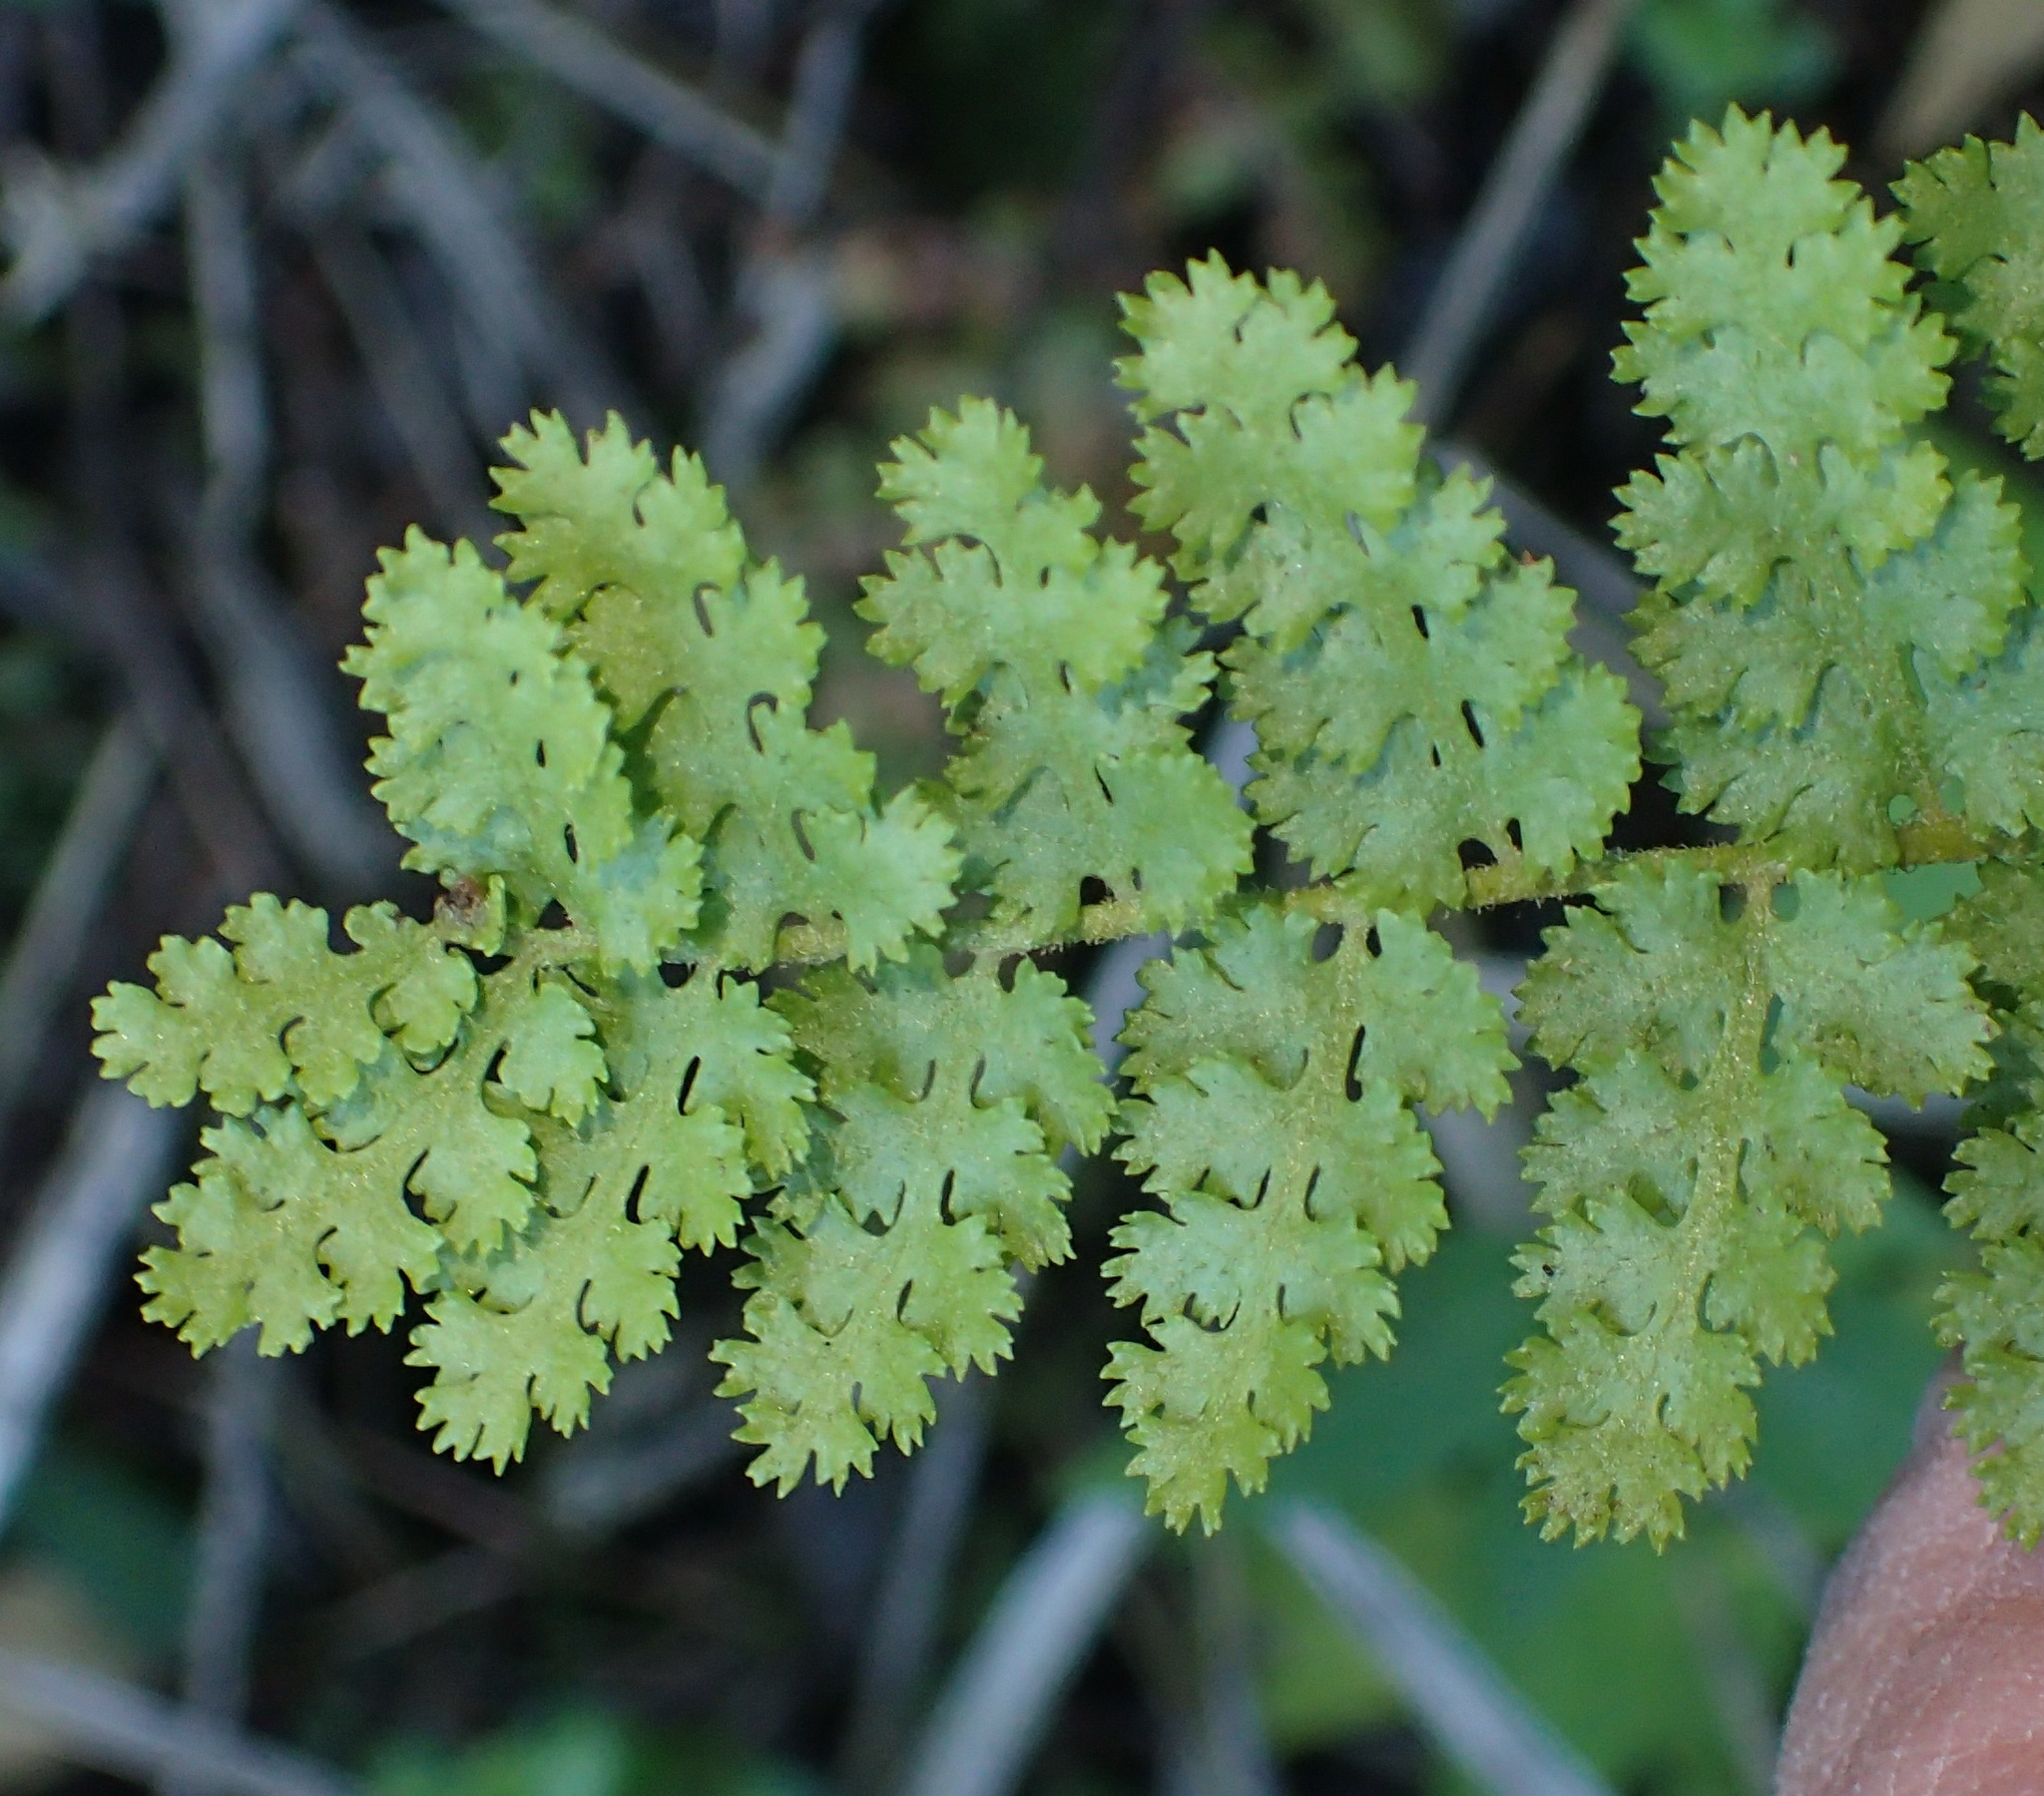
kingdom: Plantae
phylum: Tracheophyta
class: Polypodiopsida
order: Schizaeales
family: Anemiaceae
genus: Anemia
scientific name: Anemia caffrorum
